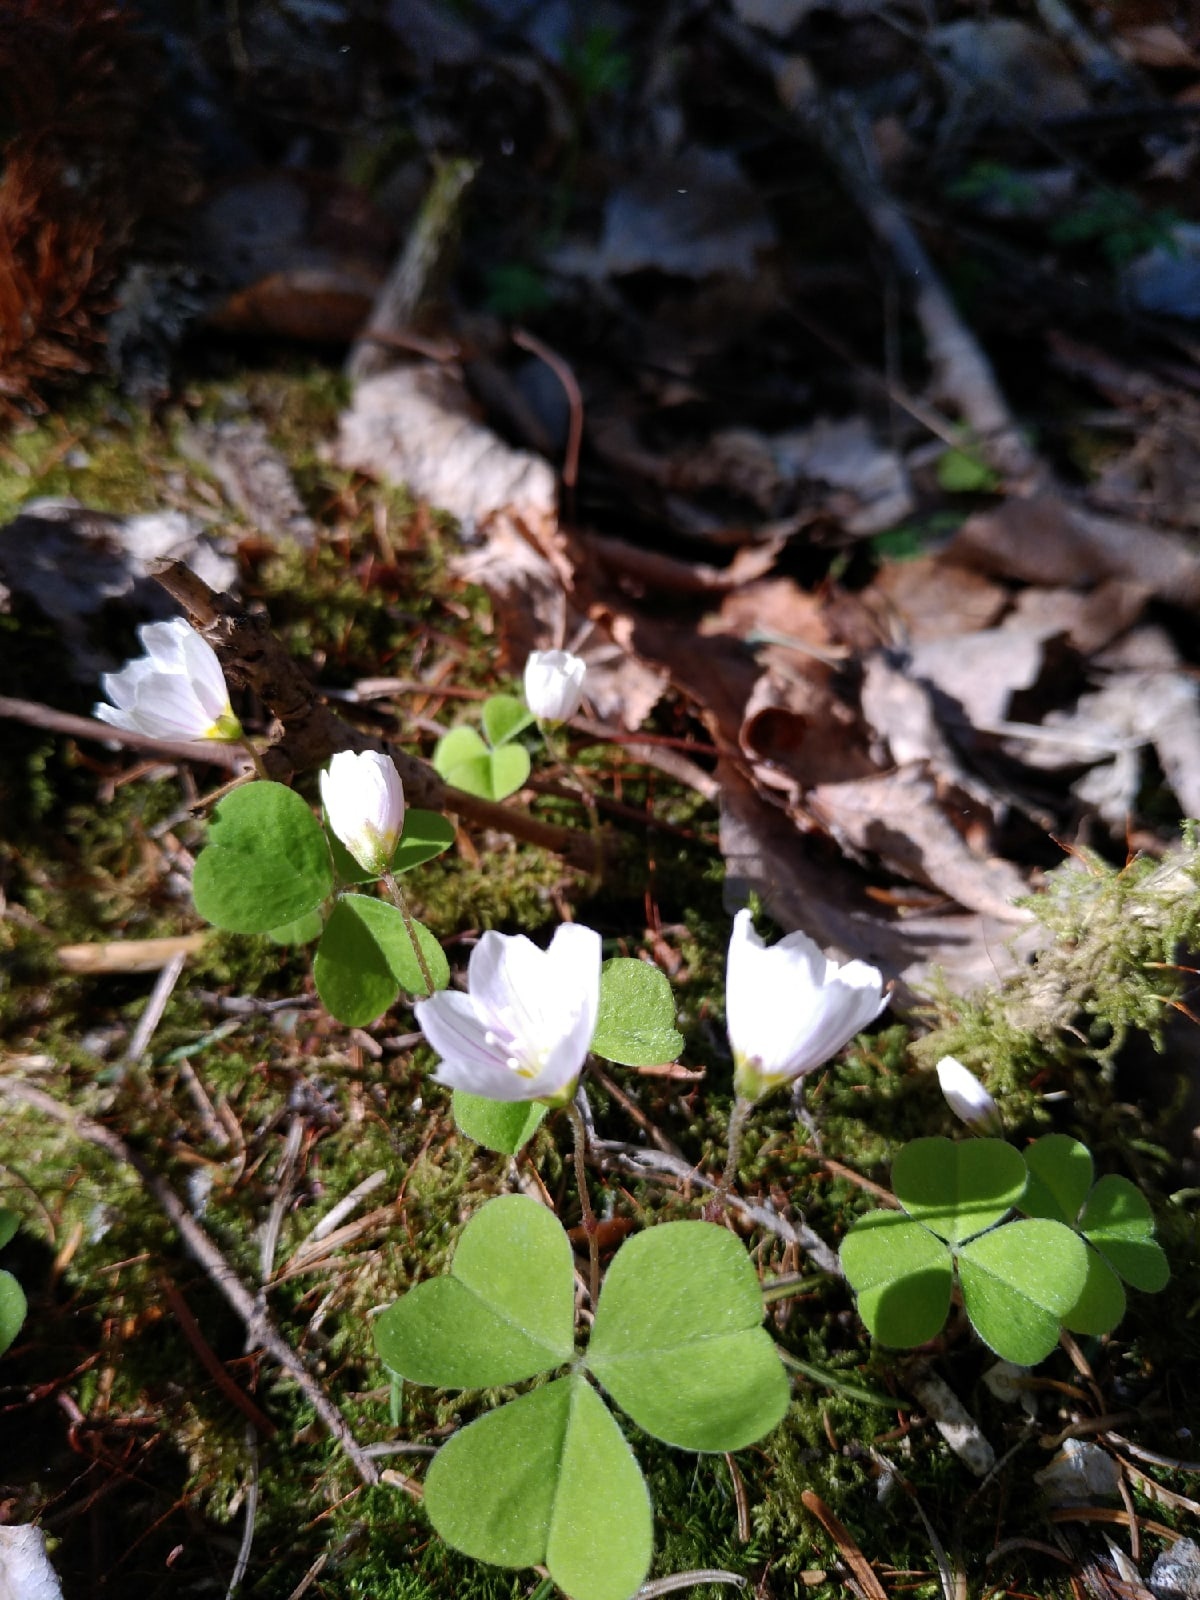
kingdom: Plantae
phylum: Tracheophyta
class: Magnoliopsida
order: Oxalidales
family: Oxalidaceae
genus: Oxalis
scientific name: Oxalis acetosella
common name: Wood-sorrel
